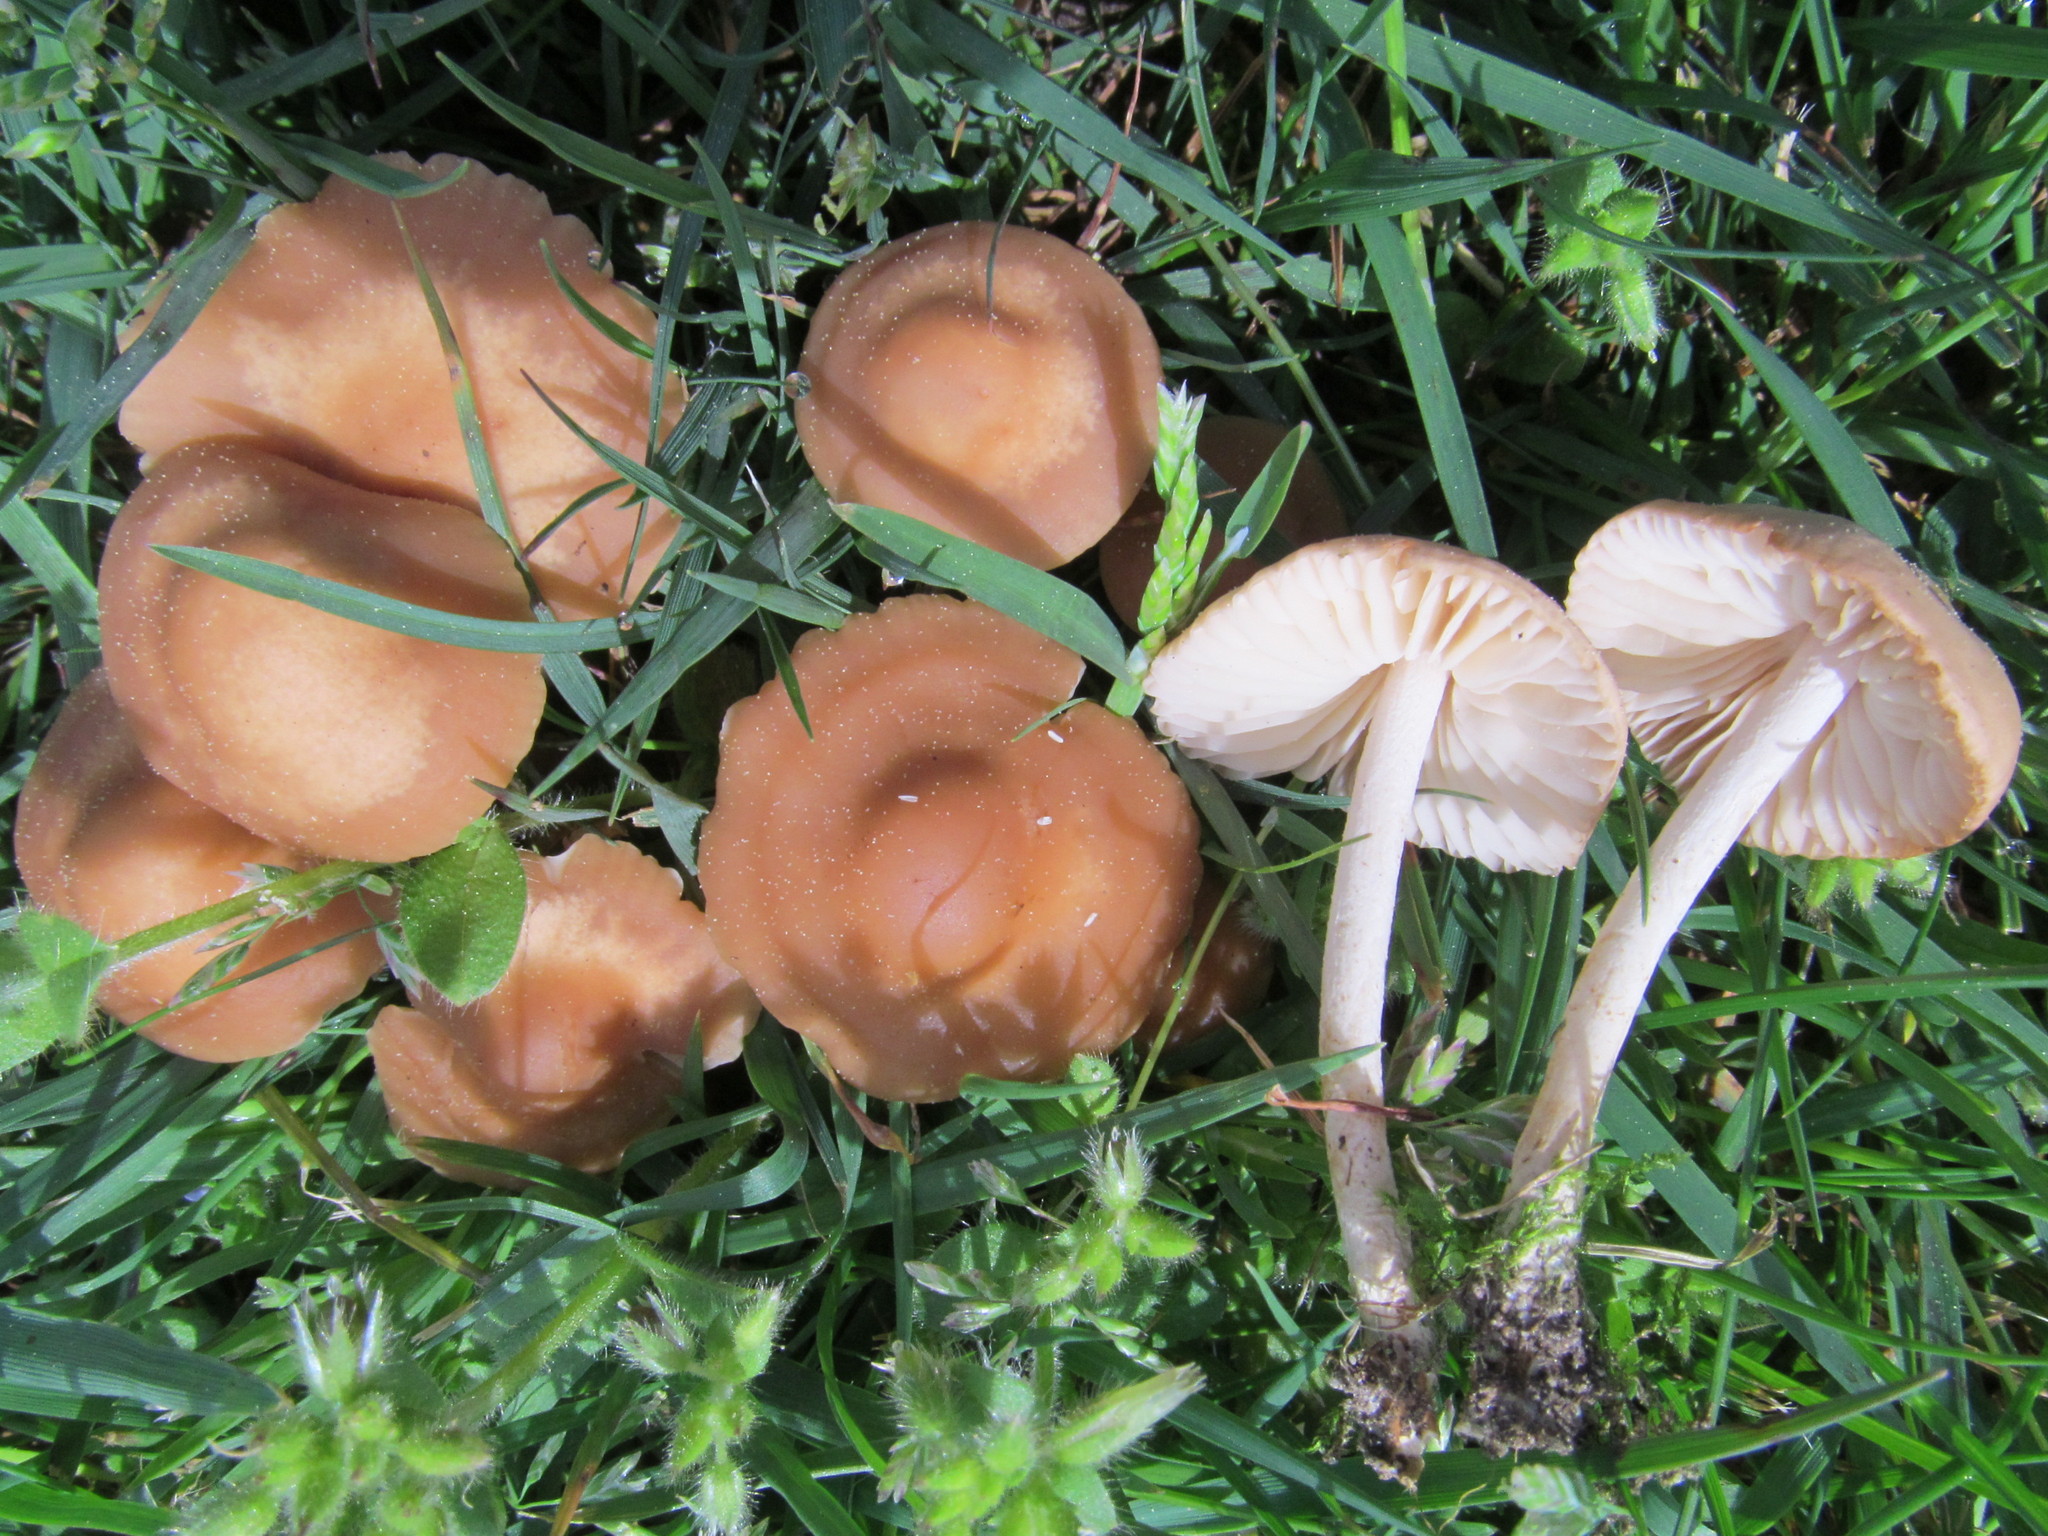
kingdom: Fungi
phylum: Basidiomycota
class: Agaricomycetes
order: Agaricales
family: Marasmiaceae
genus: Marasmius
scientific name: Marasmius oreades
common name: Fairy ring champignon
